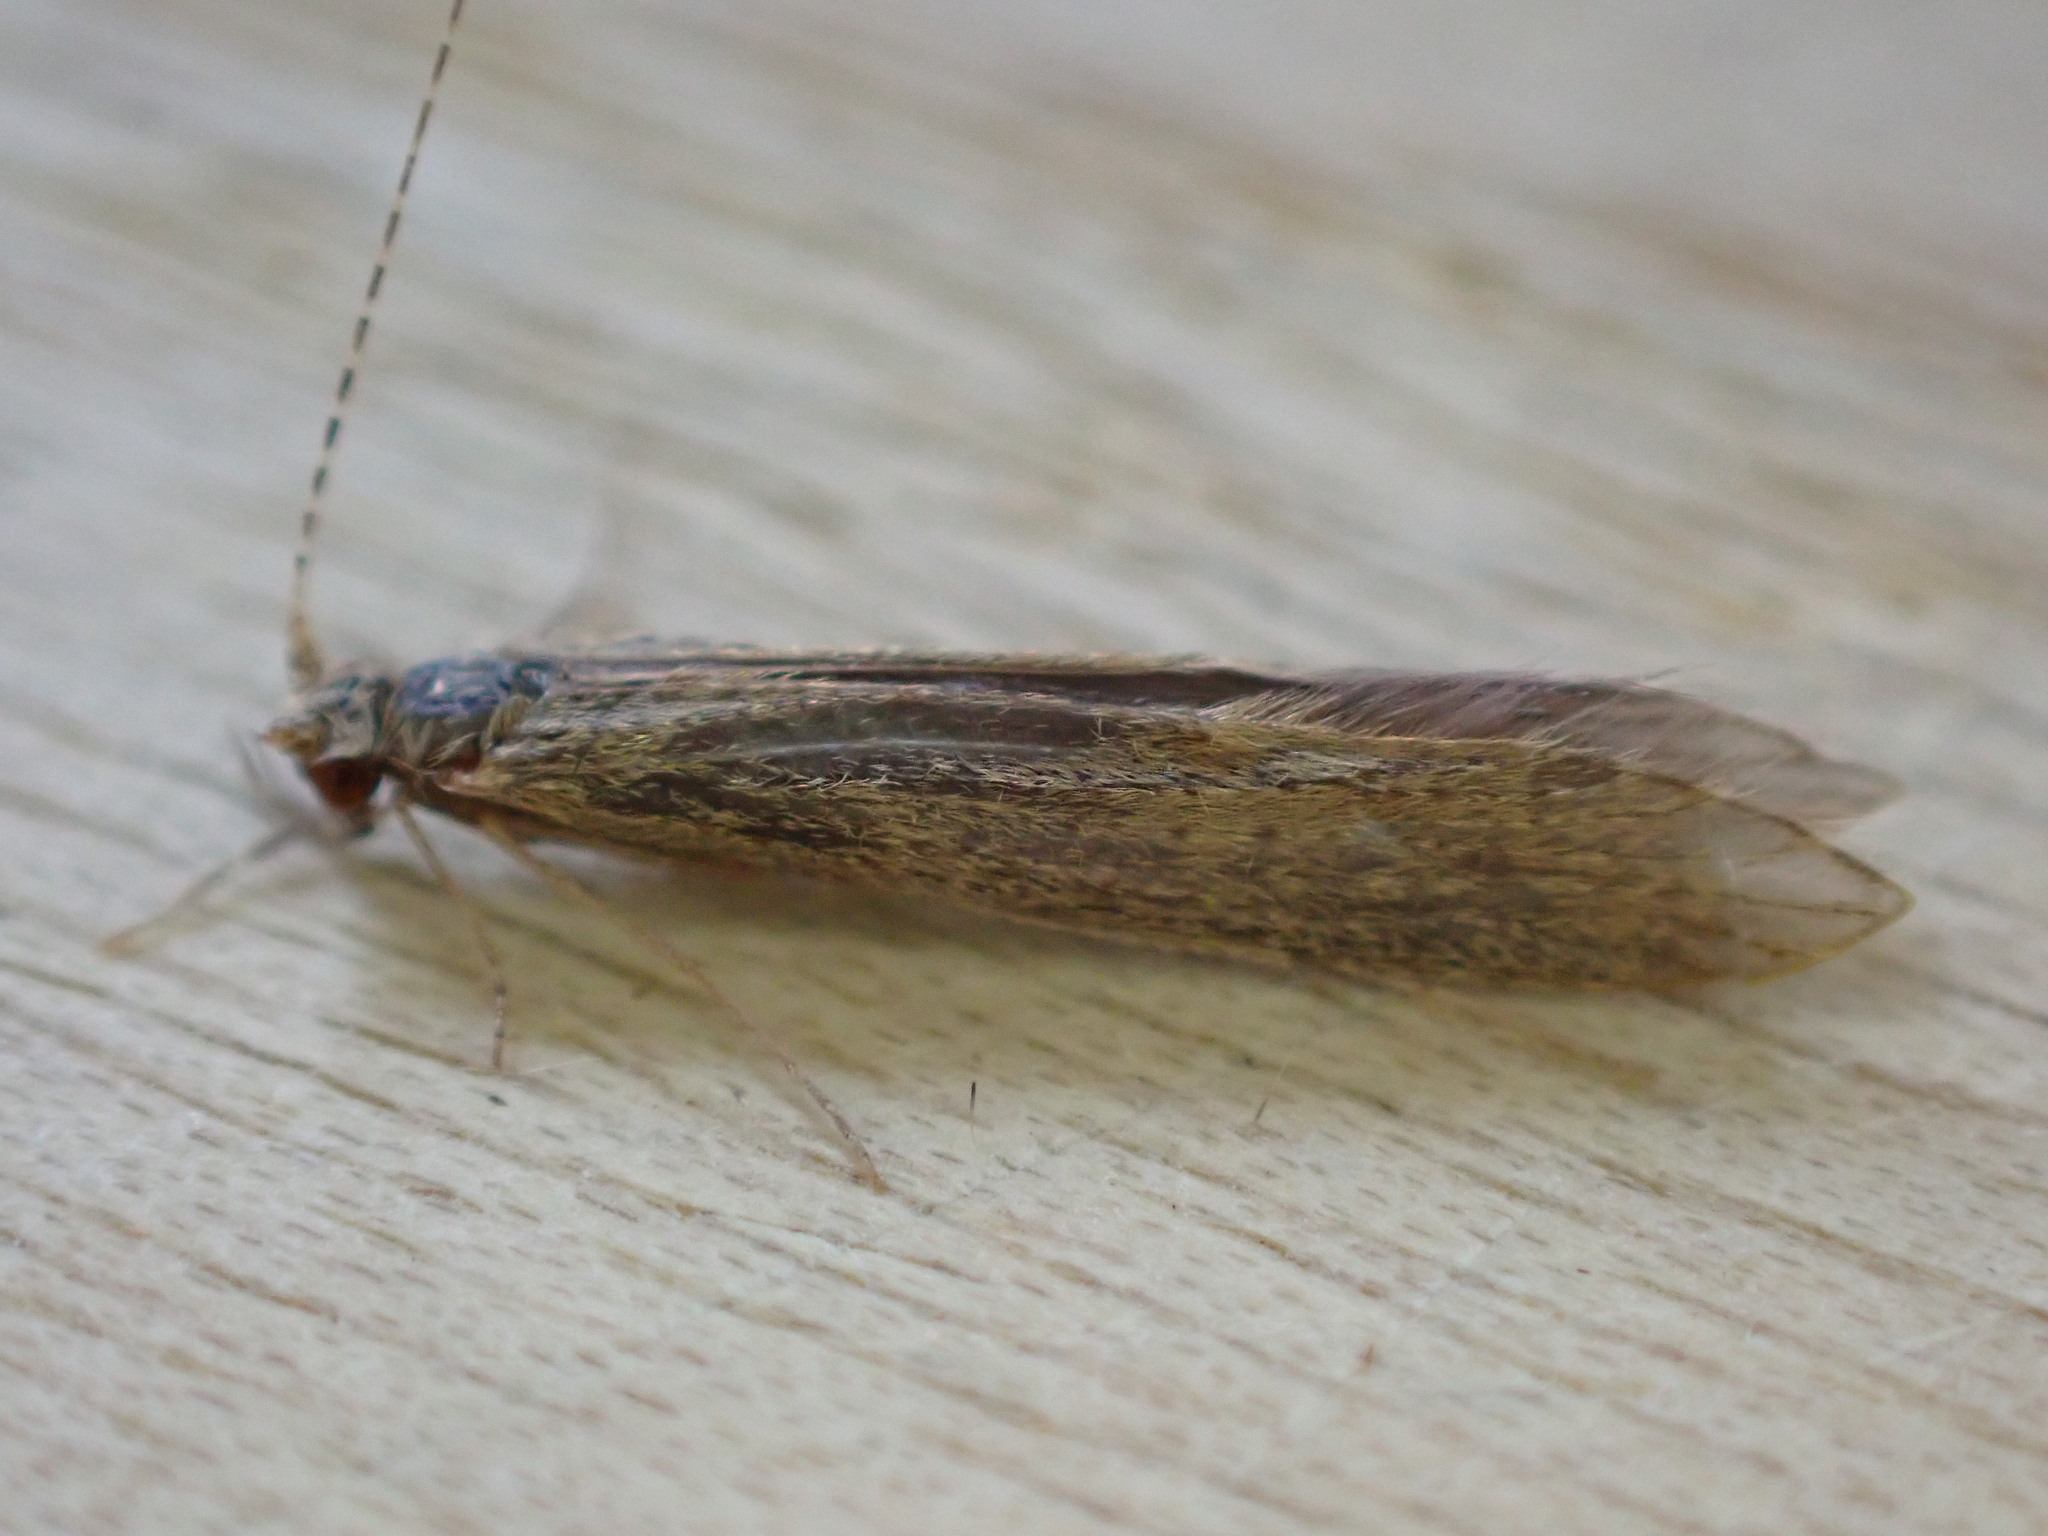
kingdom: Animalia
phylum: Arthropoda
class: Insecta
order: Trichoptera
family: Leptoceridae
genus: Leptocerus
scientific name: Leptocerus tineiformis
